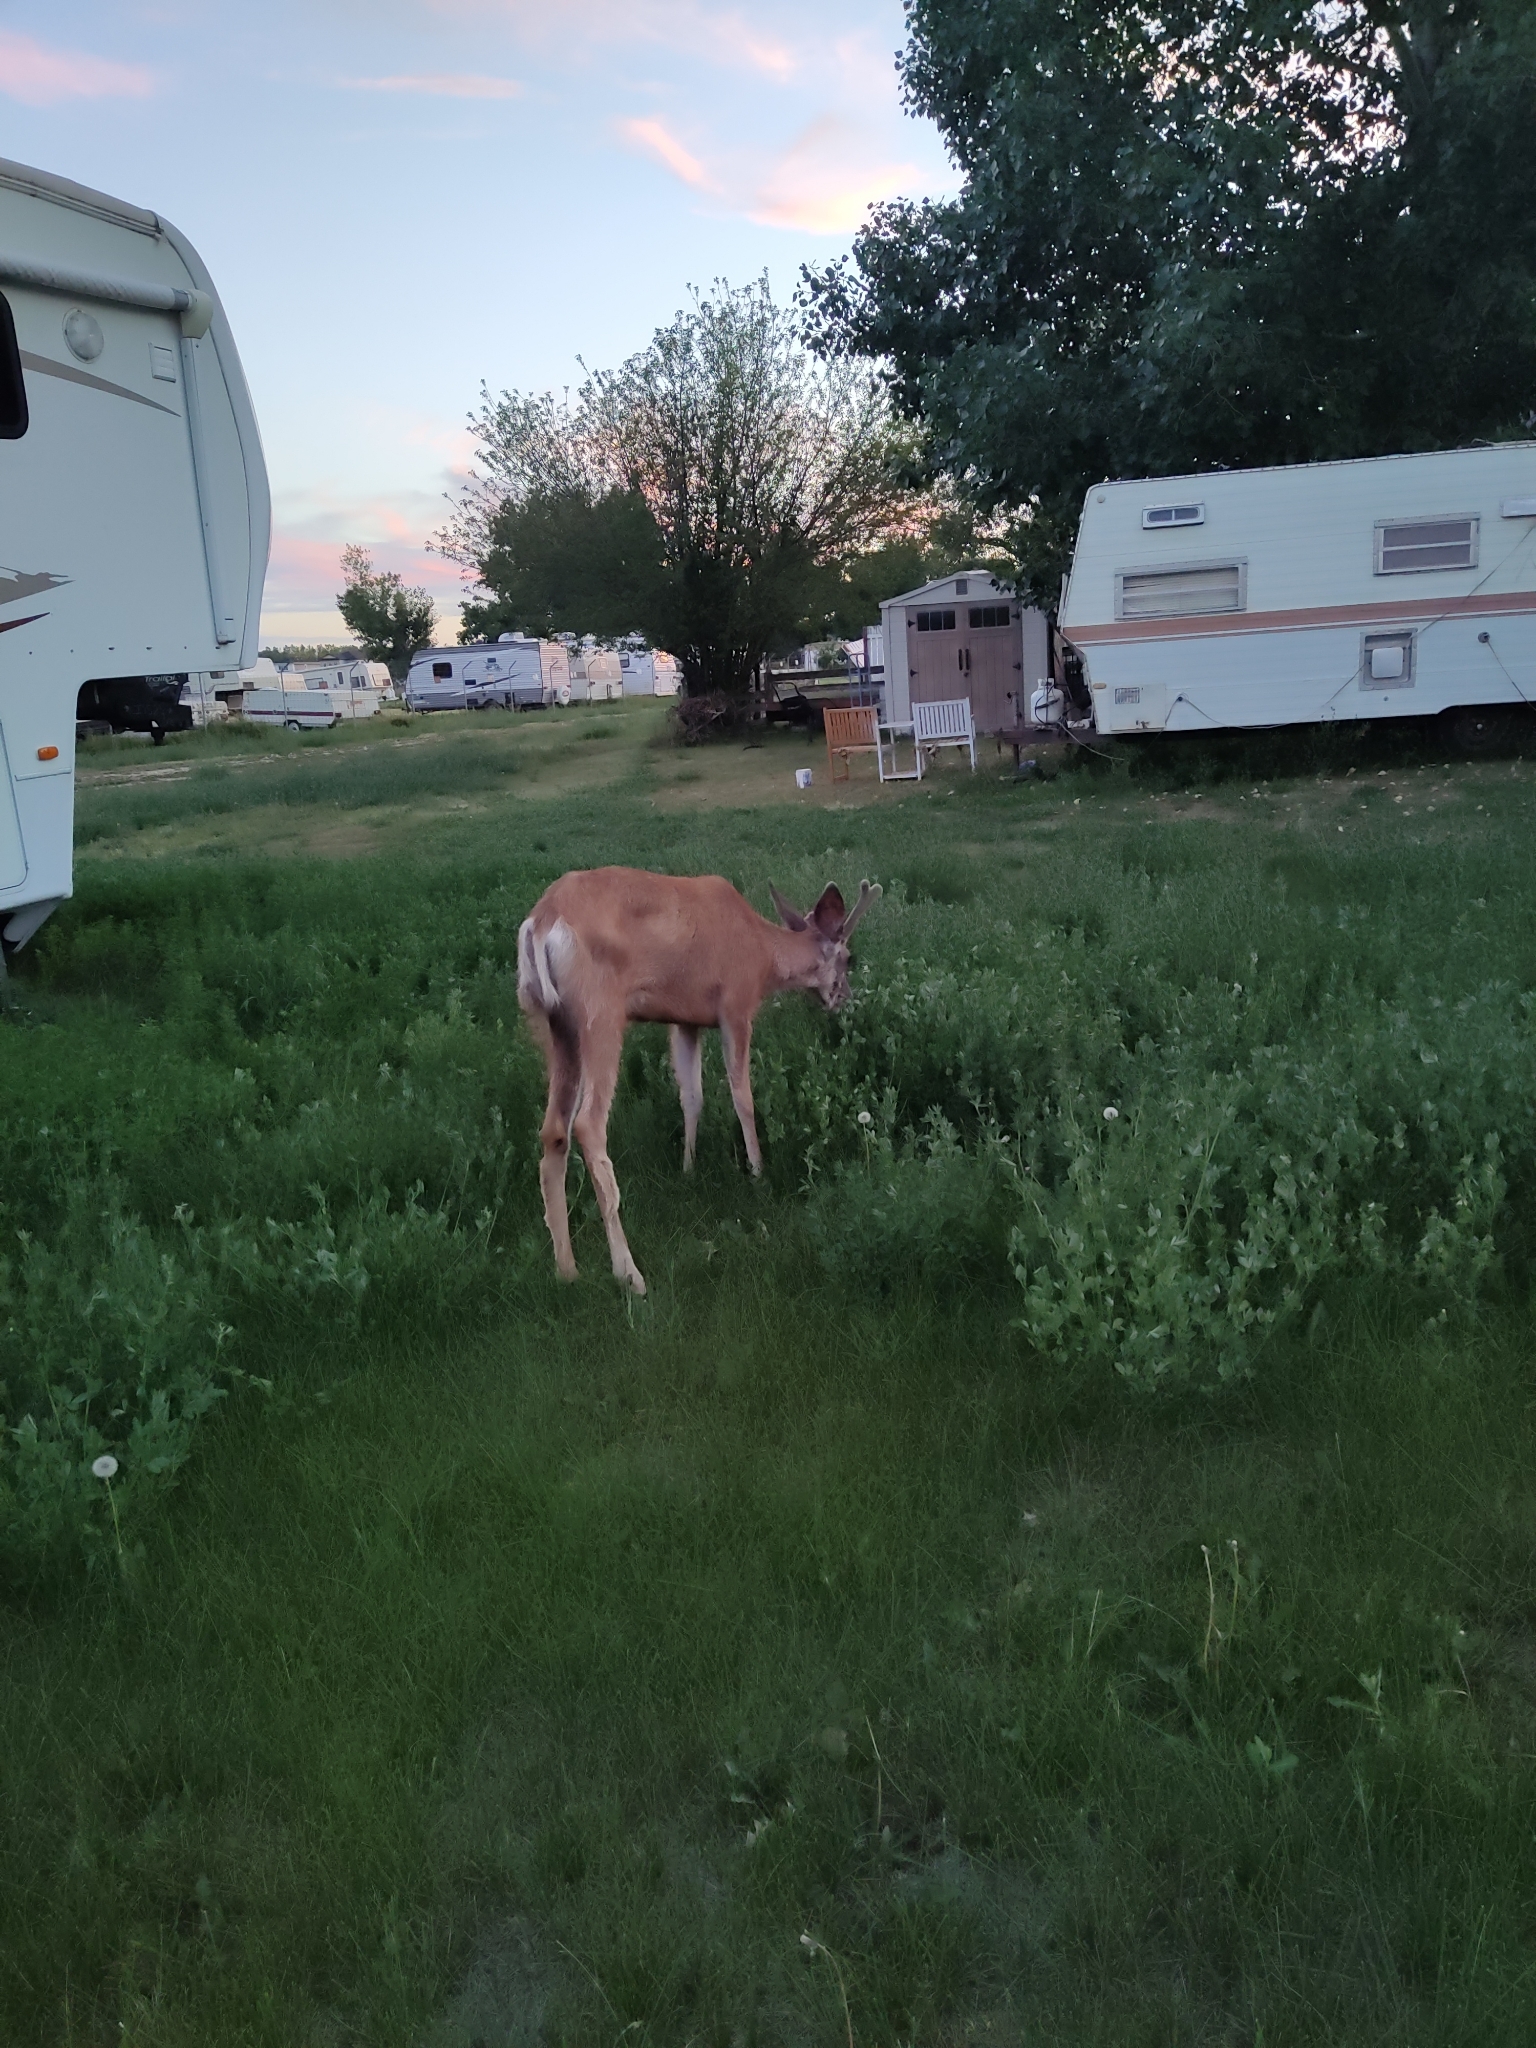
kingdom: Animalia
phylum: Chordata
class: Mammalia
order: Artiodactyla
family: Cervidae
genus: Odocoileus
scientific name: Odocoileus hemionus
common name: Mule deer
